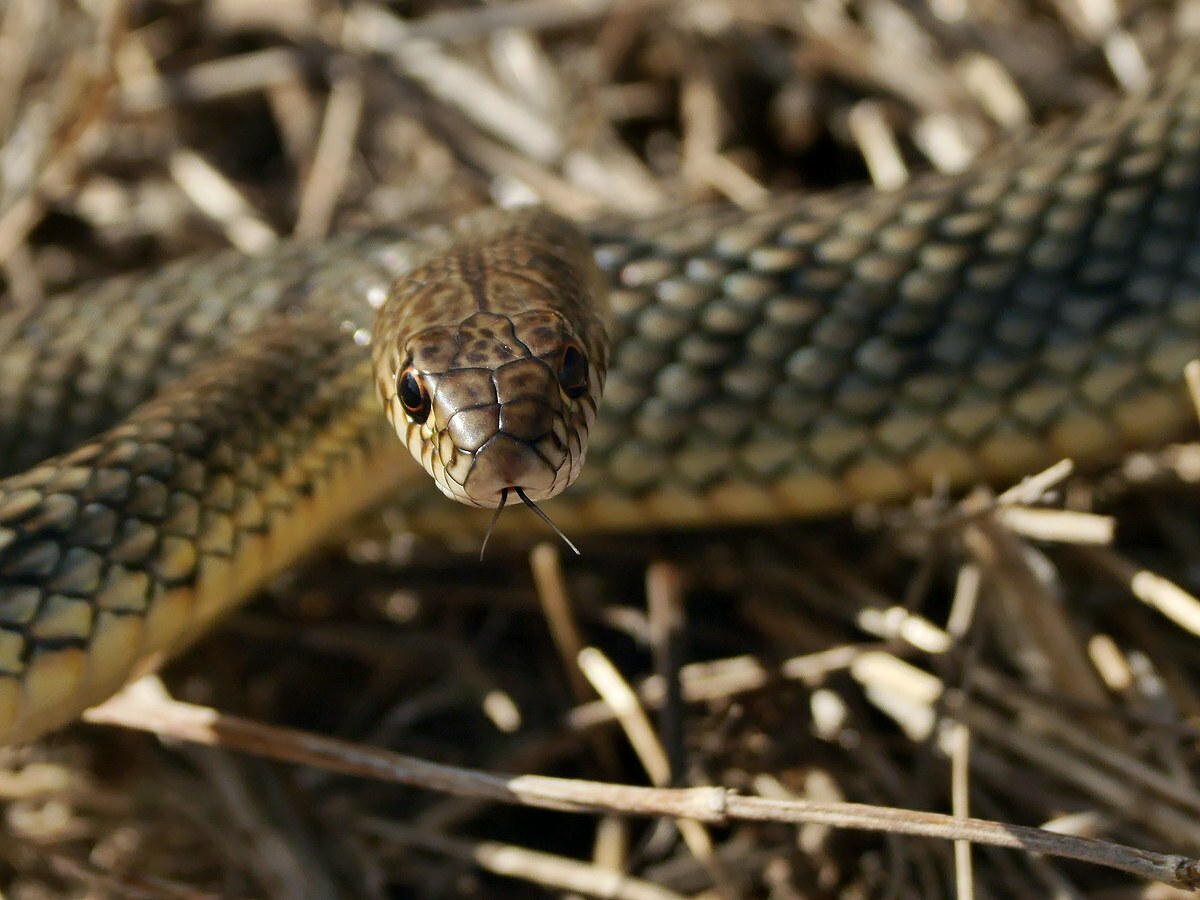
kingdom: Animalia
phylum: Chordata
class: Squamata
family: Colubridae
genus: Dolichophis
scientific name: Dolichophis caspius
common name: Large whip snake
